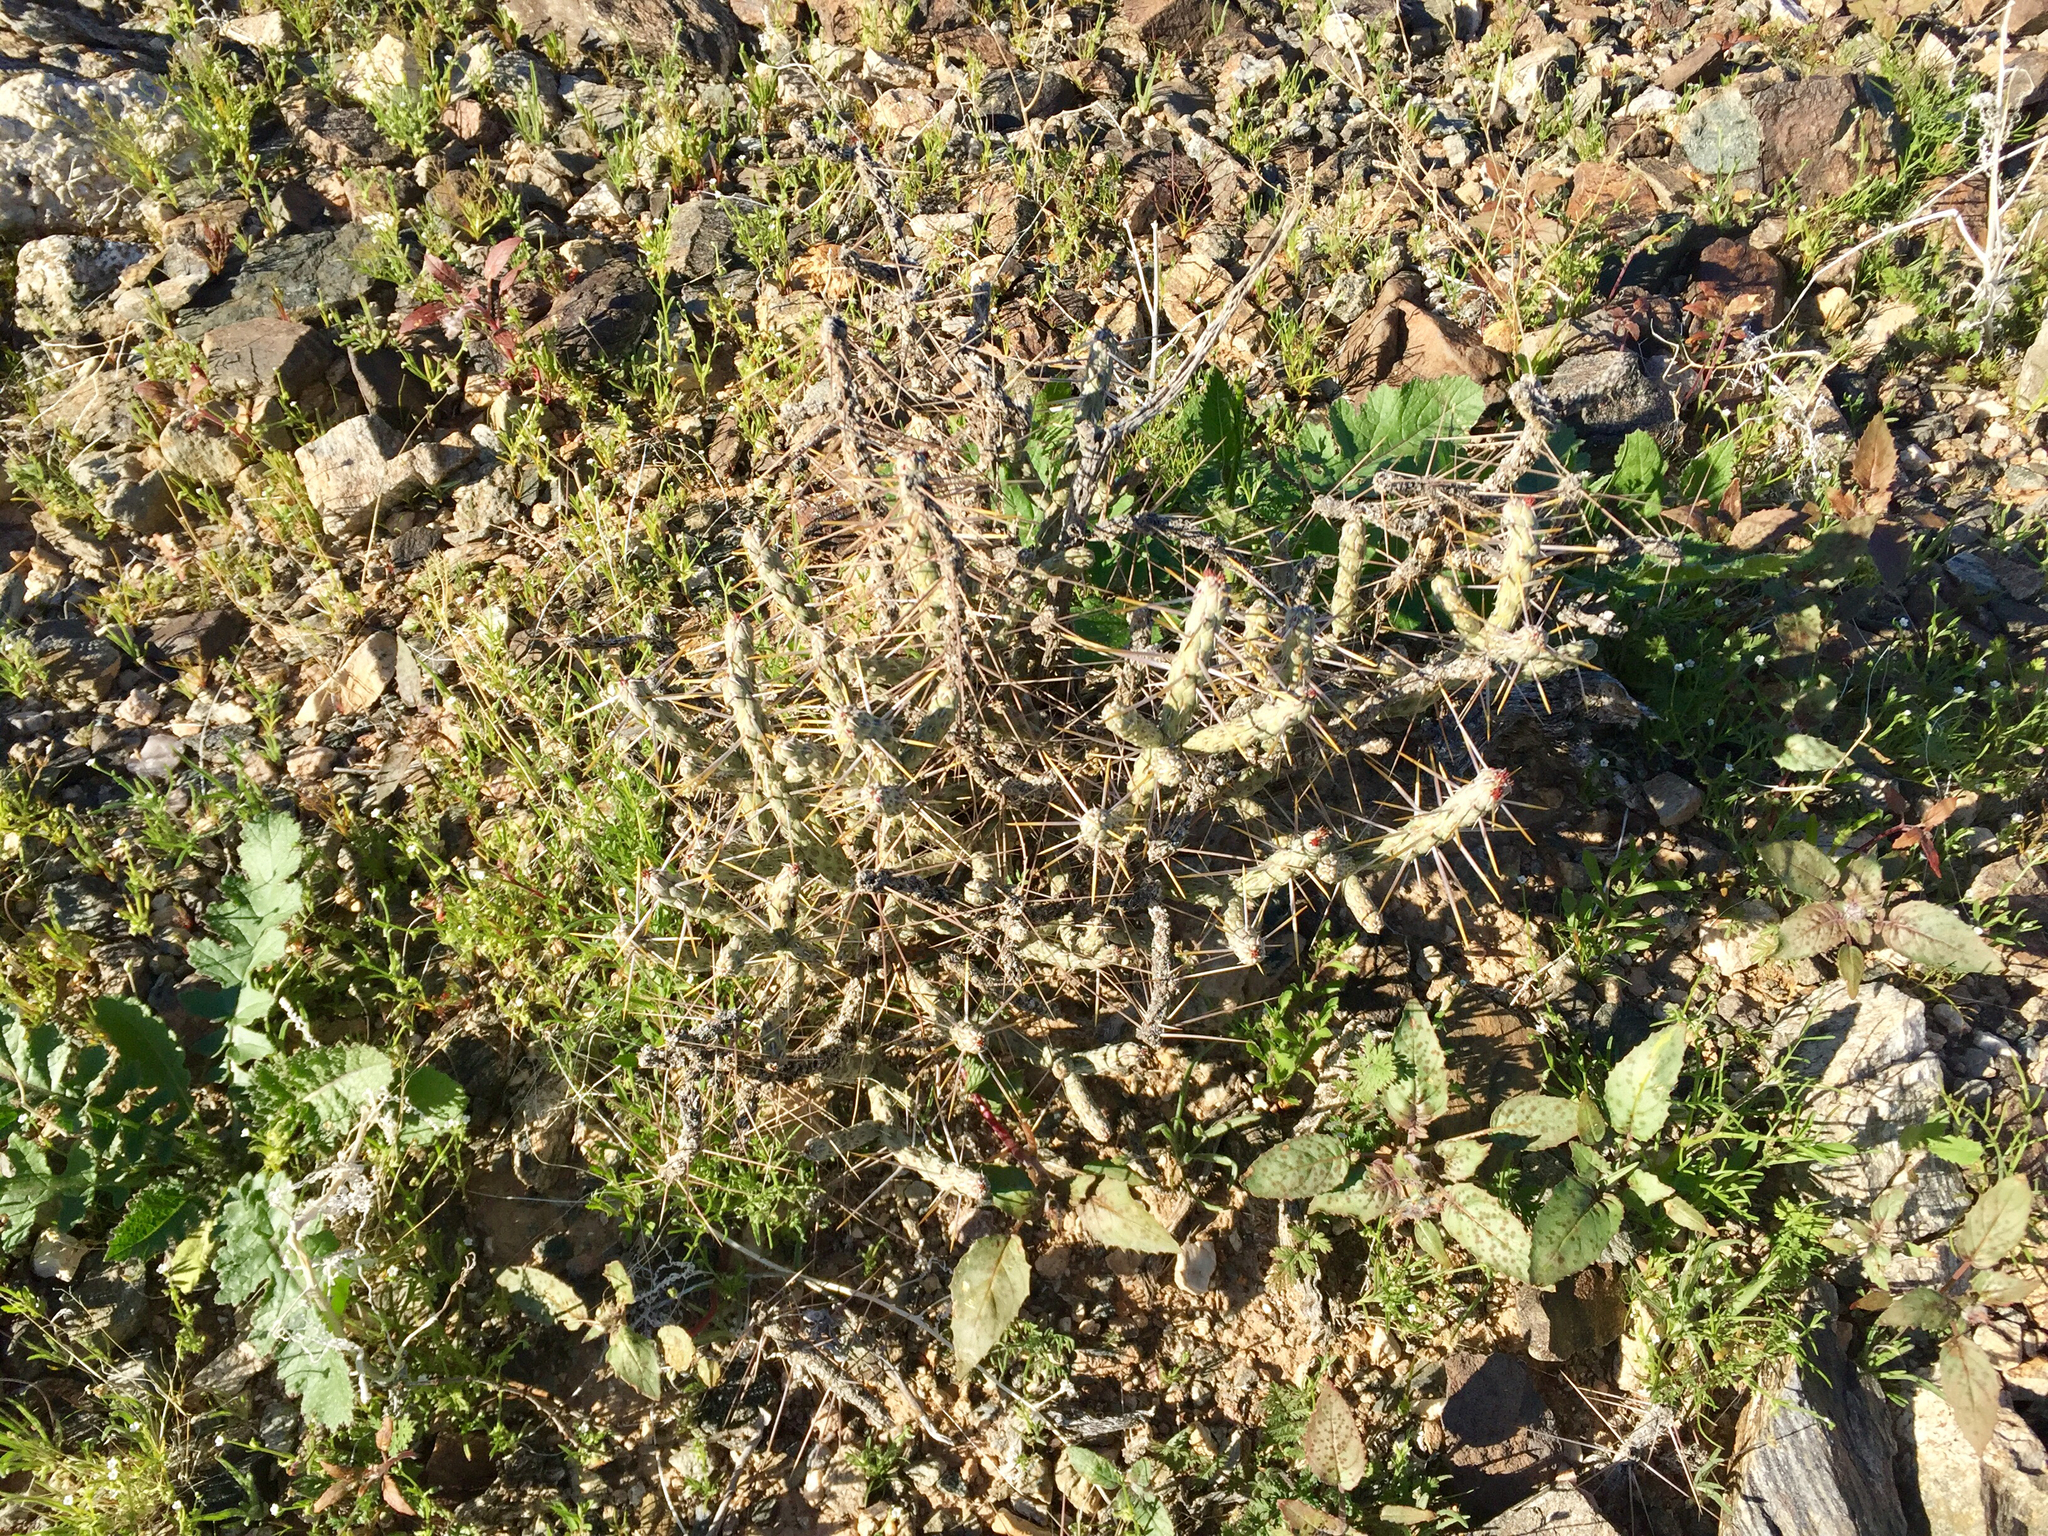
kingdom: Plantae
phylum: Tracheophyta
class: Magnoliopsida
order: Caryophyllales
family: Cactaceae
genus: Cylindropuntia
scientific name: Cylindropuntia ramosissima
